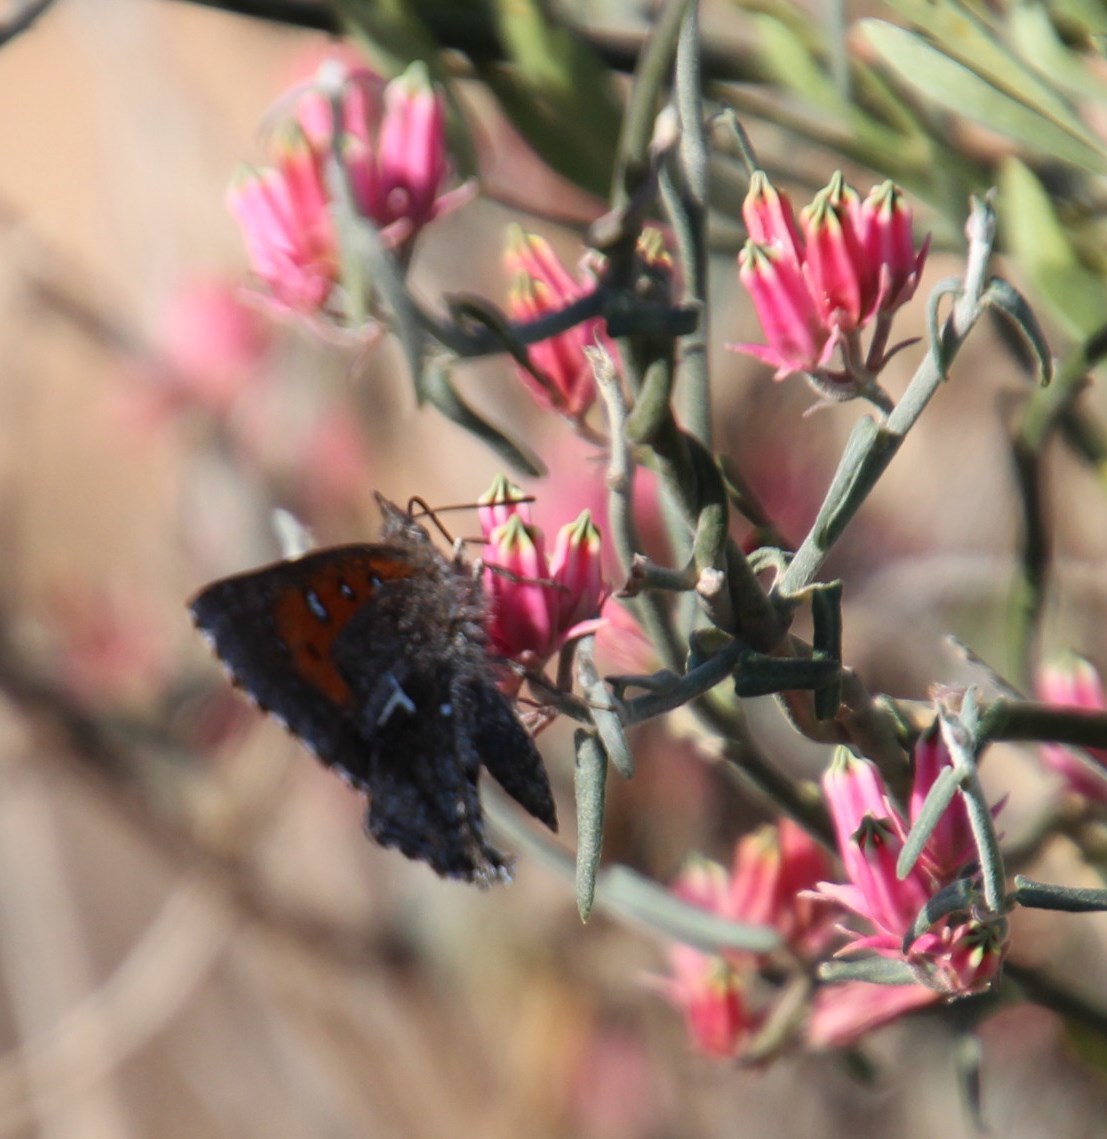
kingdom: Plantae
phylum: Tracheophyta
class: Magnoliopsida
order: Gentianales
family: Apocynaceae
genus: Microloma
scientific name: Microloma sagittatum
